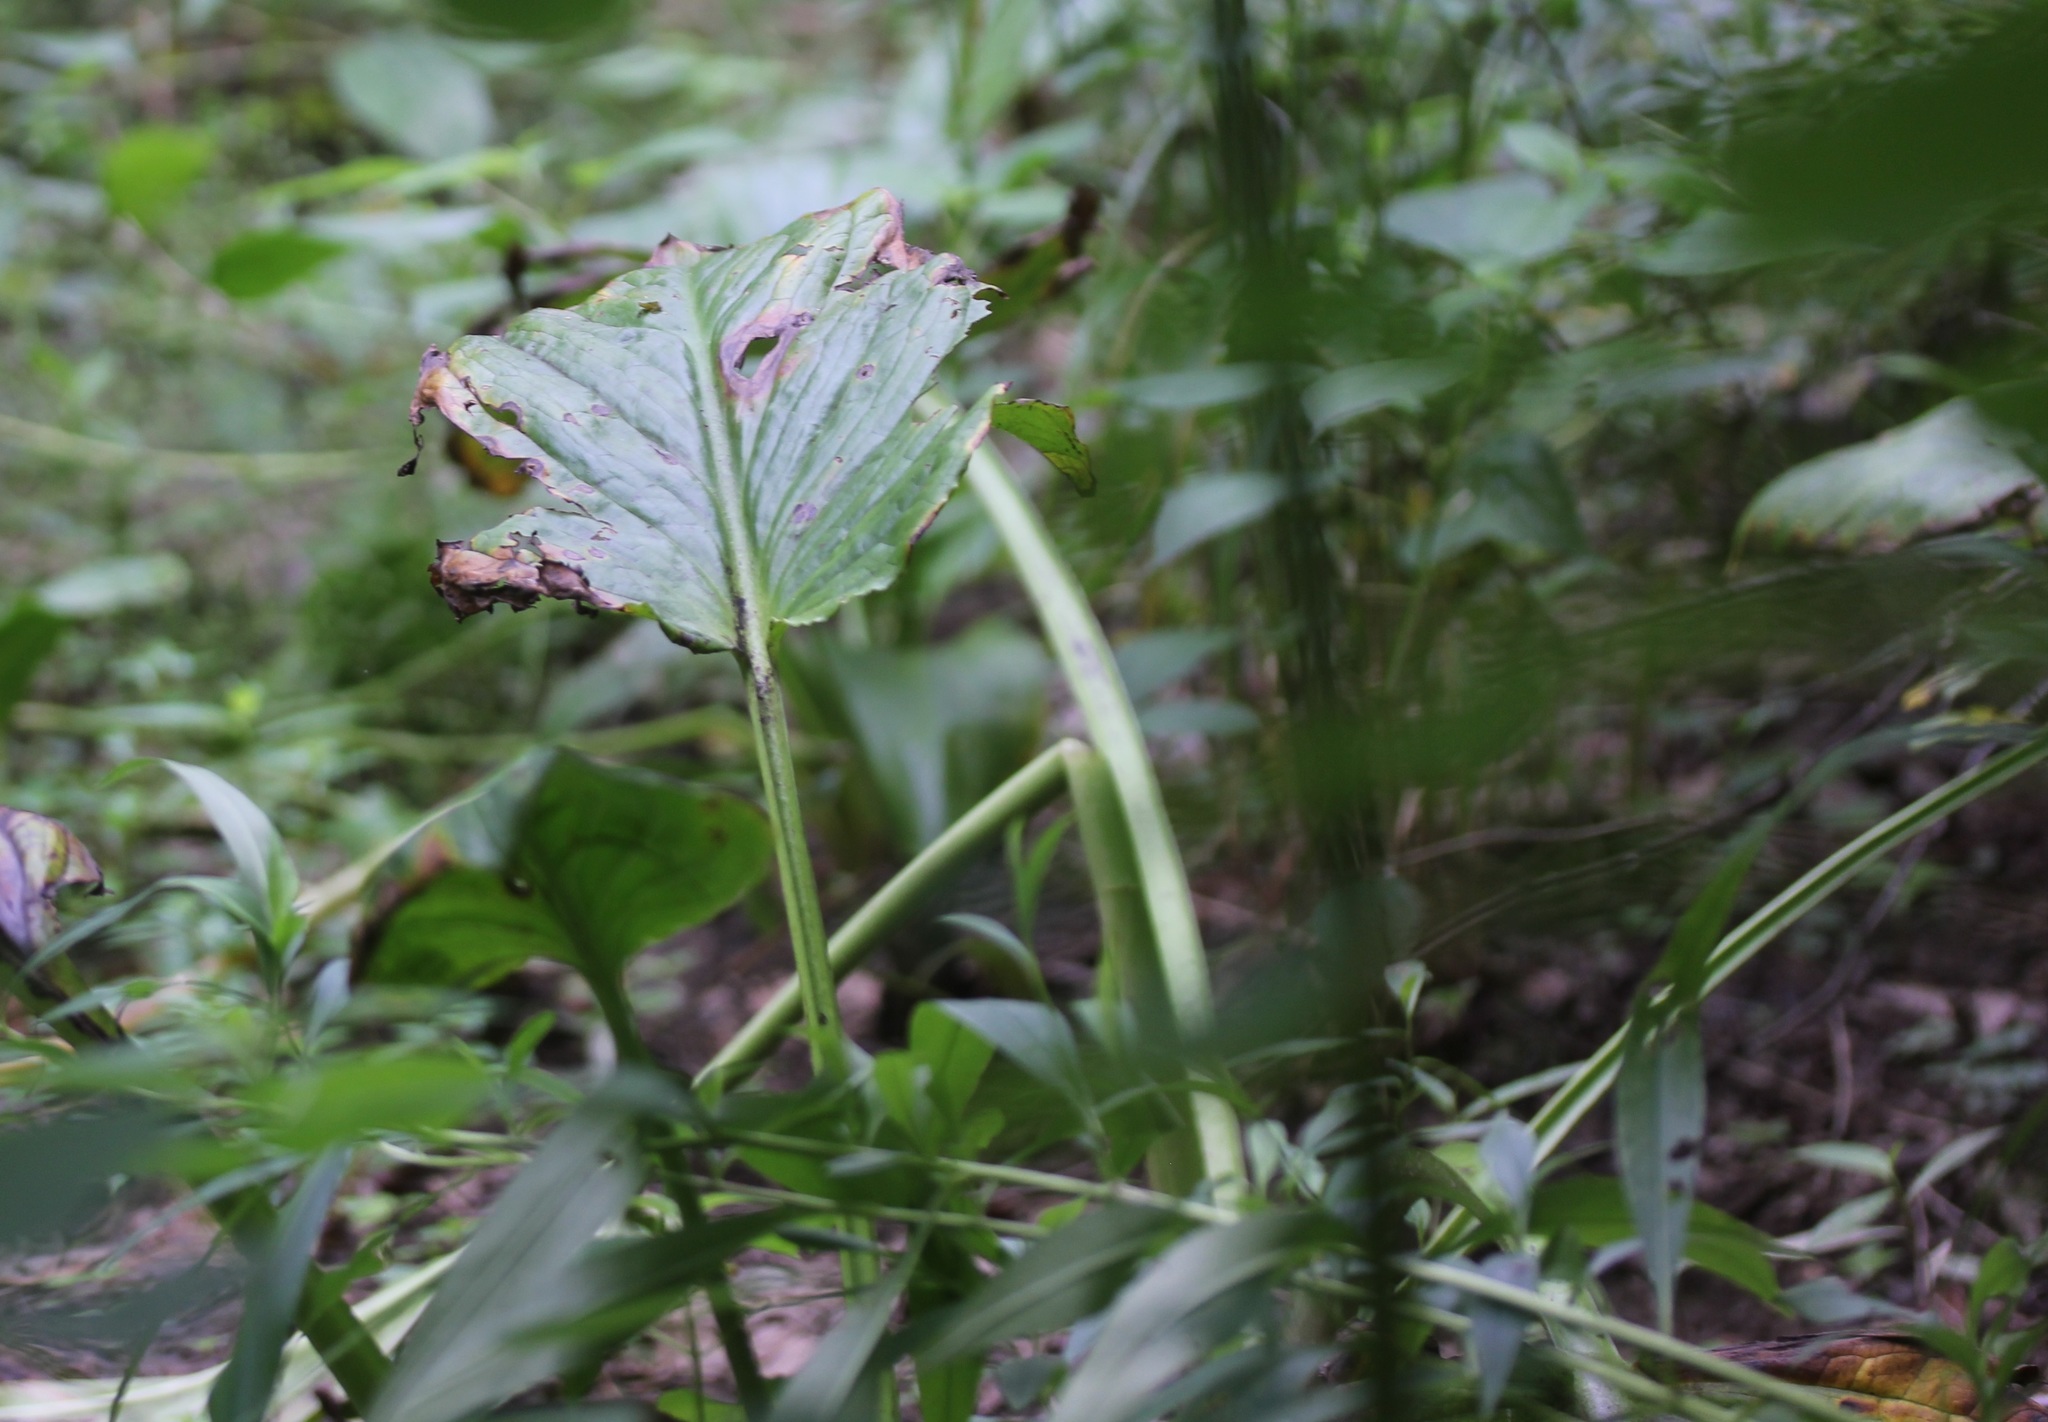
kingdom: Plantae
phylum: Tracheophyta
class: Liliopsida
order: Alismatales
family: Araceae
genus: Symplocarpus
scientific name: Symplocarpus foetidus
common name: Eastern skunk cabbage
